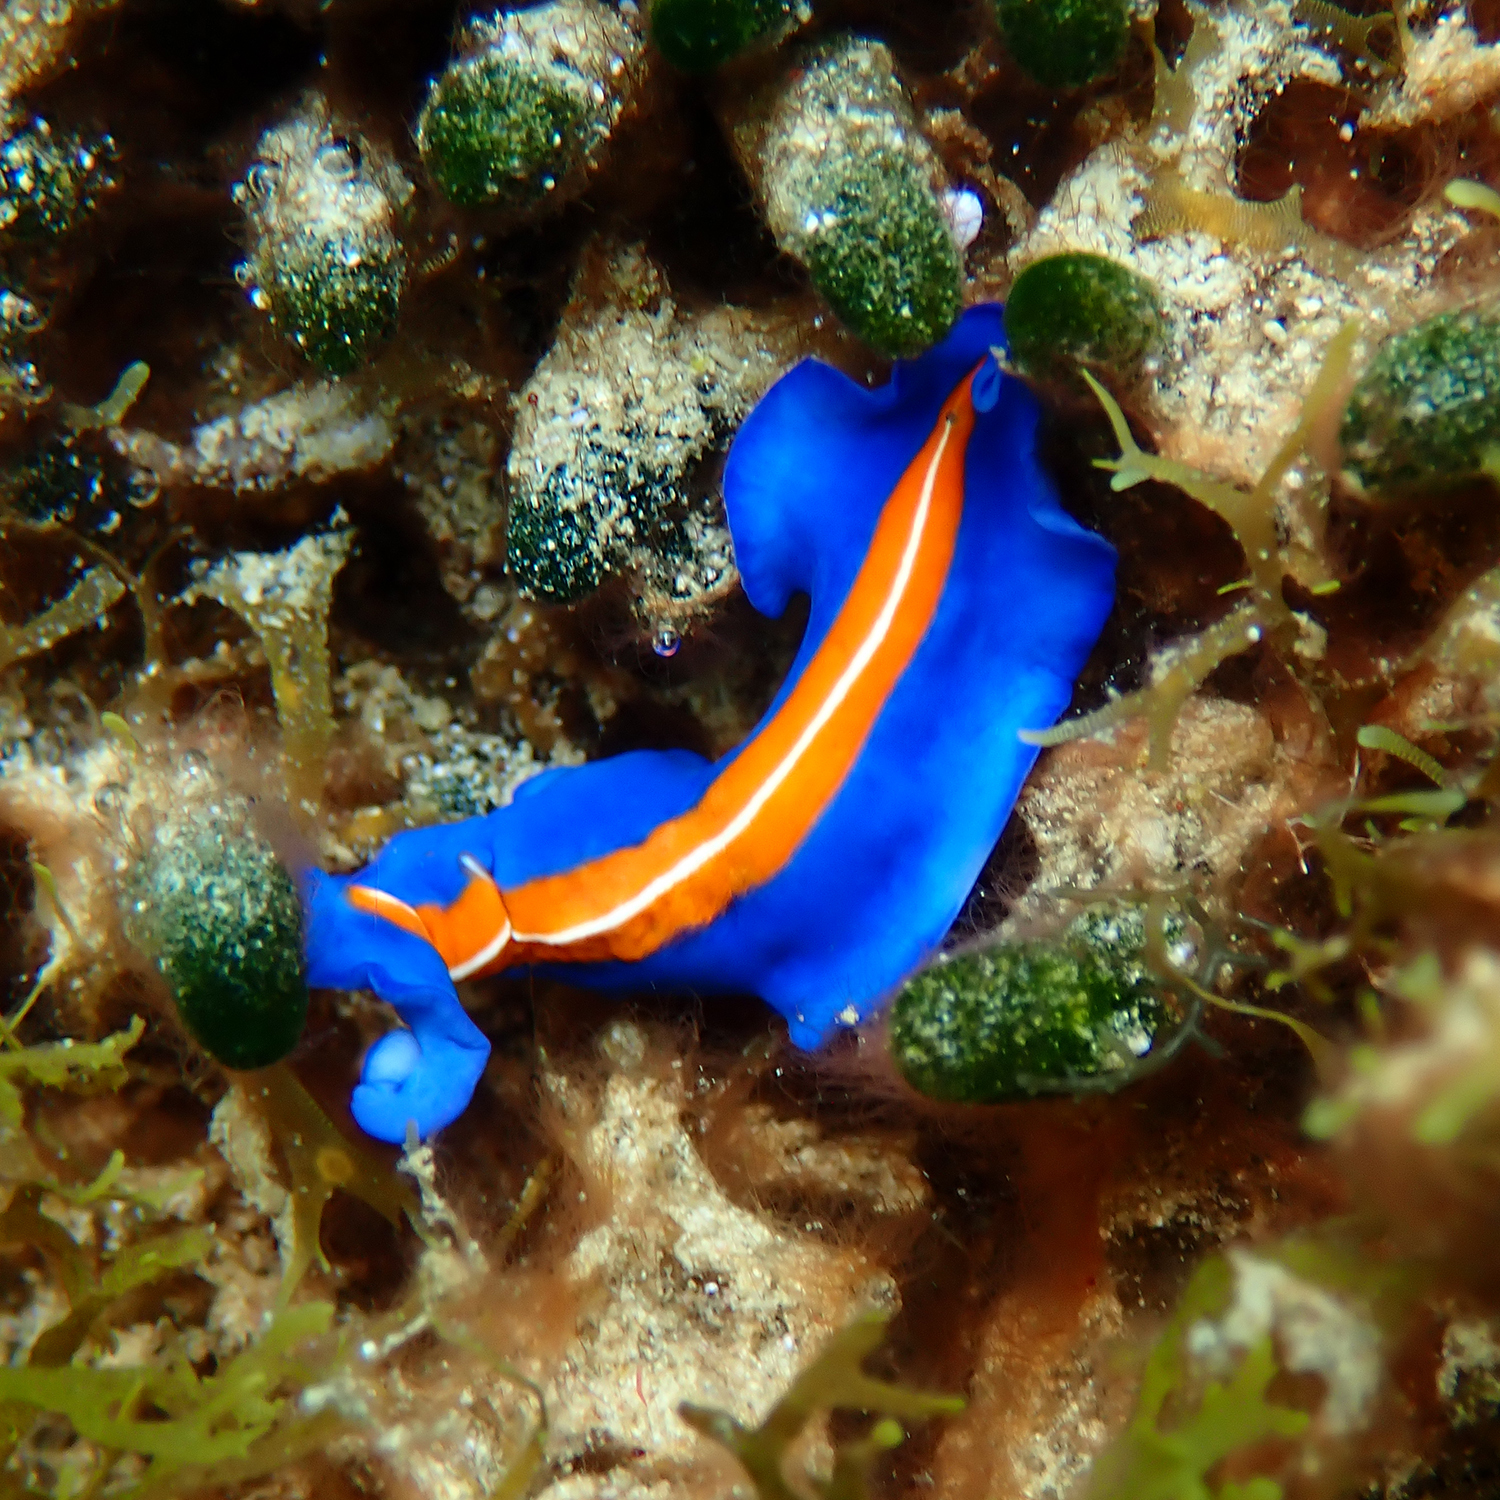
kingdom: Animalia
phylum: Platyhelminthes
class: Turbellaria
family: Pseudocerotidae
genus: Pseudoceros
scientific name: Pseudoceros susanae
